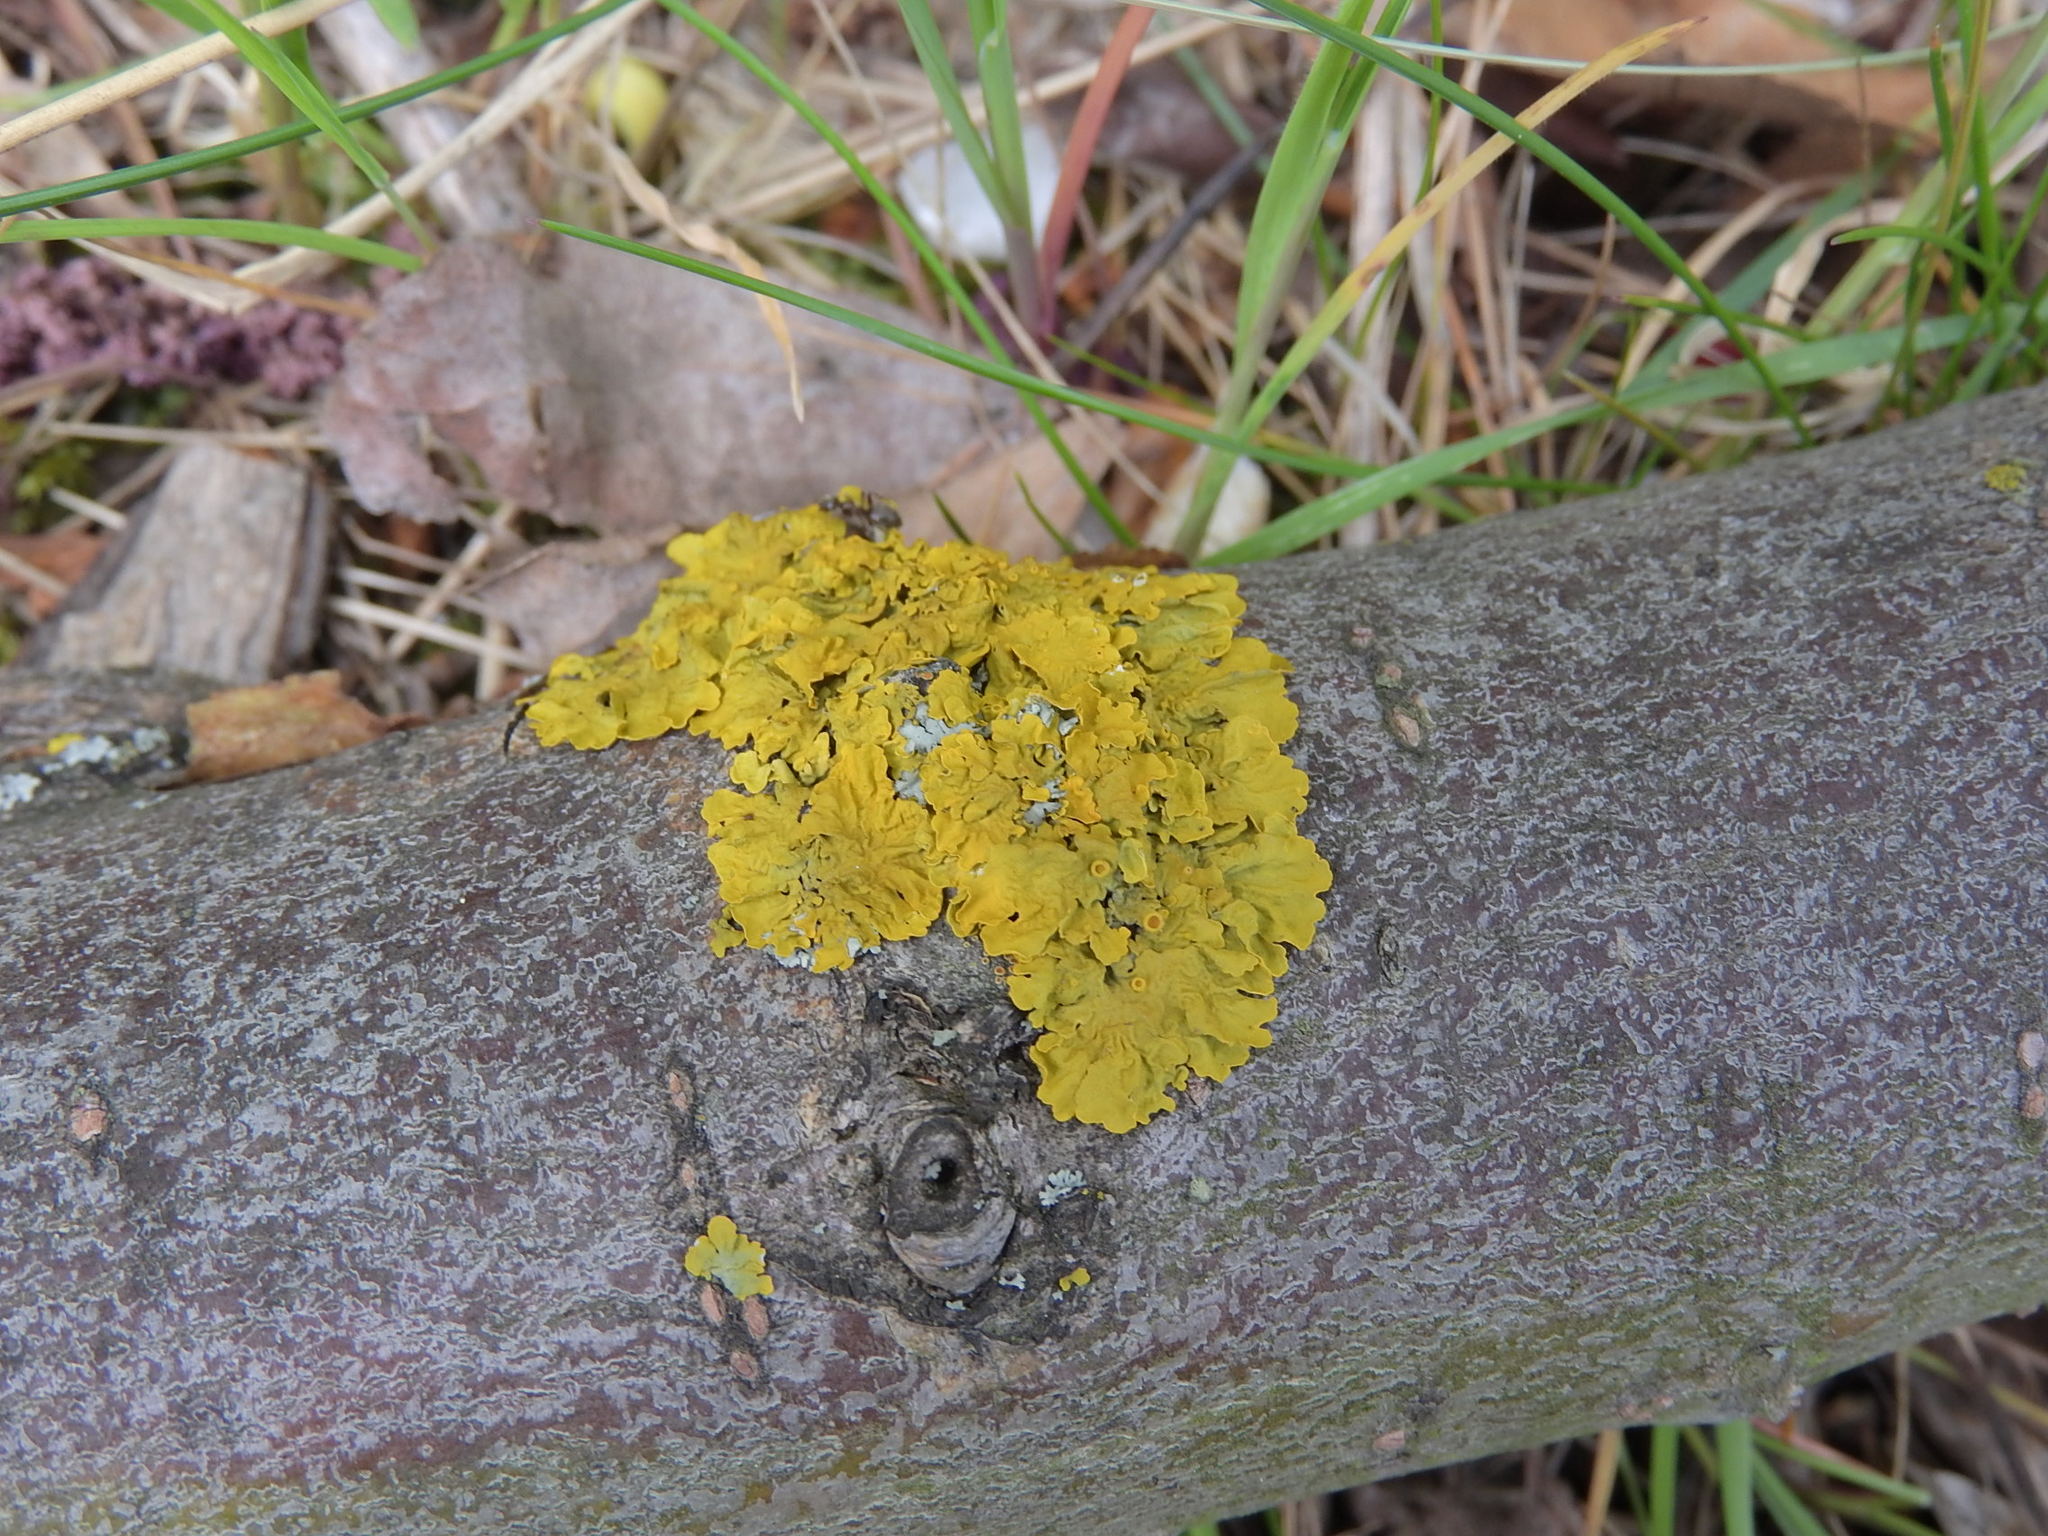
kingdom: Fungi
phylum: Ascomycota
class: Lecanoromycetes
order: Teloschistales
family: Teloschistaceae
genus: Xanthoria
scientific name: Xanthoria parietina
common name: Common orange lichen
